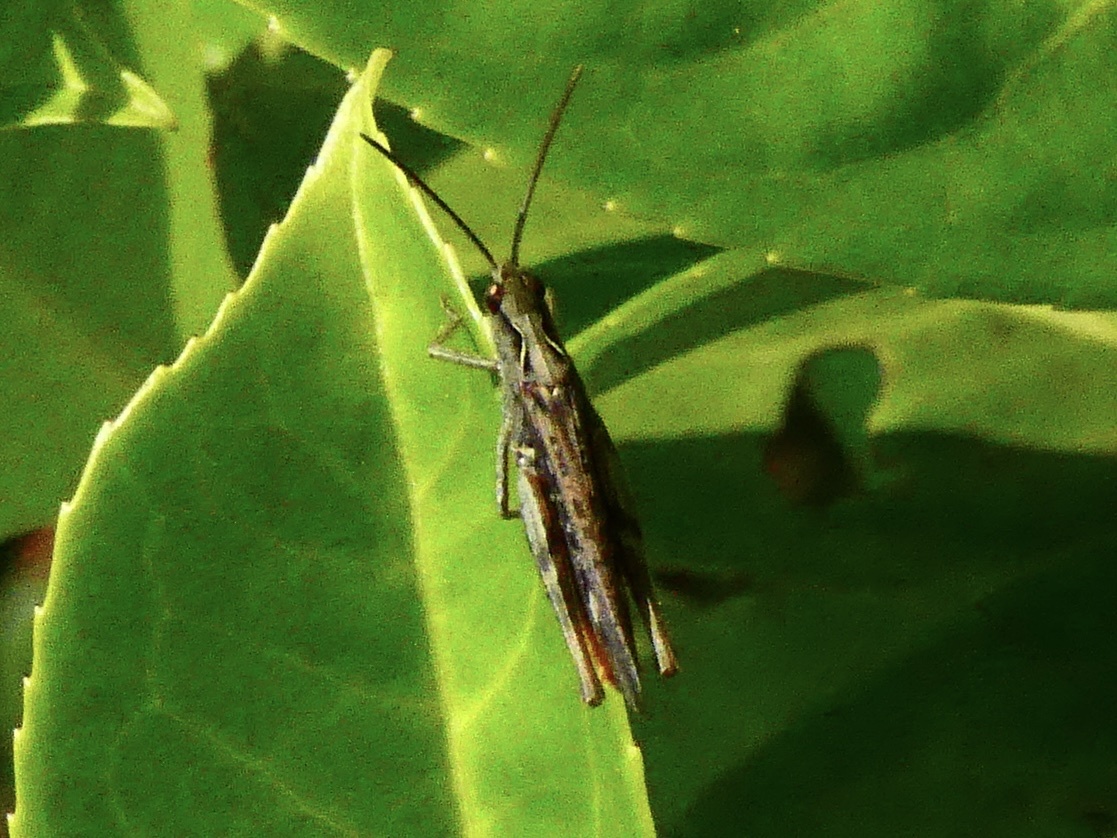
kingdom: Animalia
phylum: Arthropoda
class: Insecta
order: Orthoptera
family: Acrididae
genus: Chorthippus
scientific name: Chorthippus brunneus
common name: Field grasshopper
